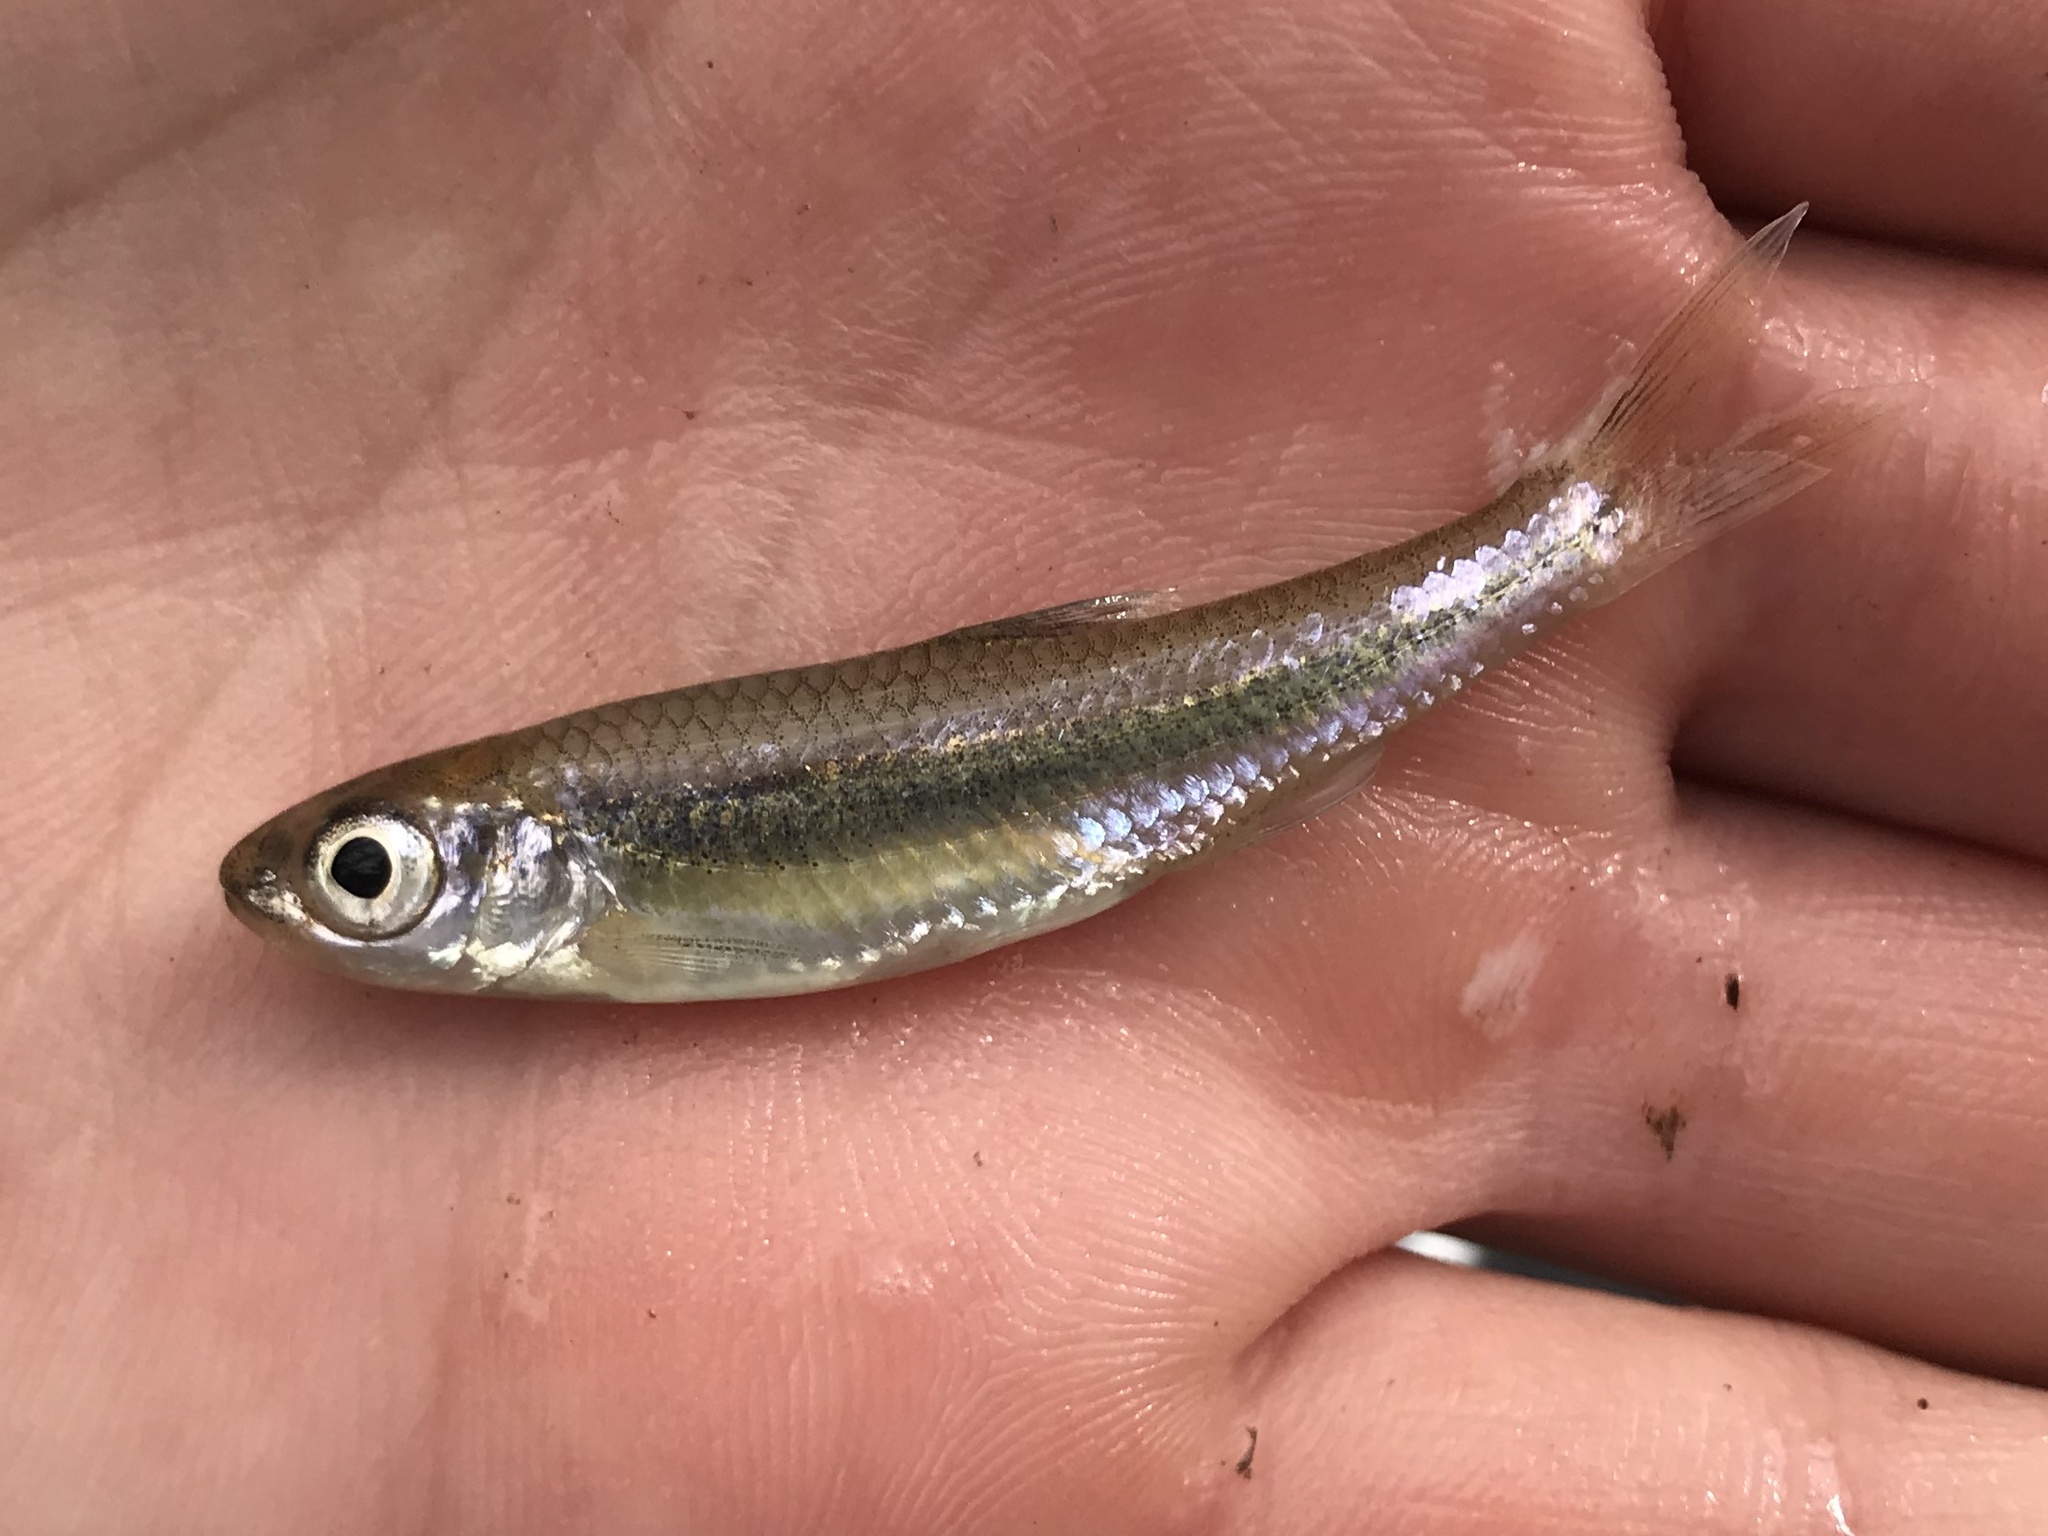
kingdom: Animalia
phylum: Chordata
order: Cypriniformes
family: Cyprinidae
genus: Notropis
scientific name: Notropis amabilis
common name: Texas shiner
